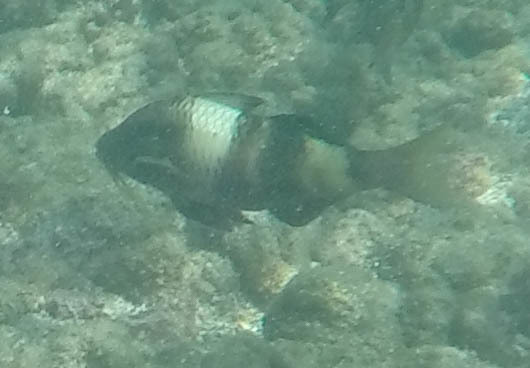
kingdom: Animalia
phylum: Chordata
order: Perciformes
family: Mullidae
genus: Parupeneus
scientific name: Parupeneus multifasciatus
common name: Manybar goatfish
